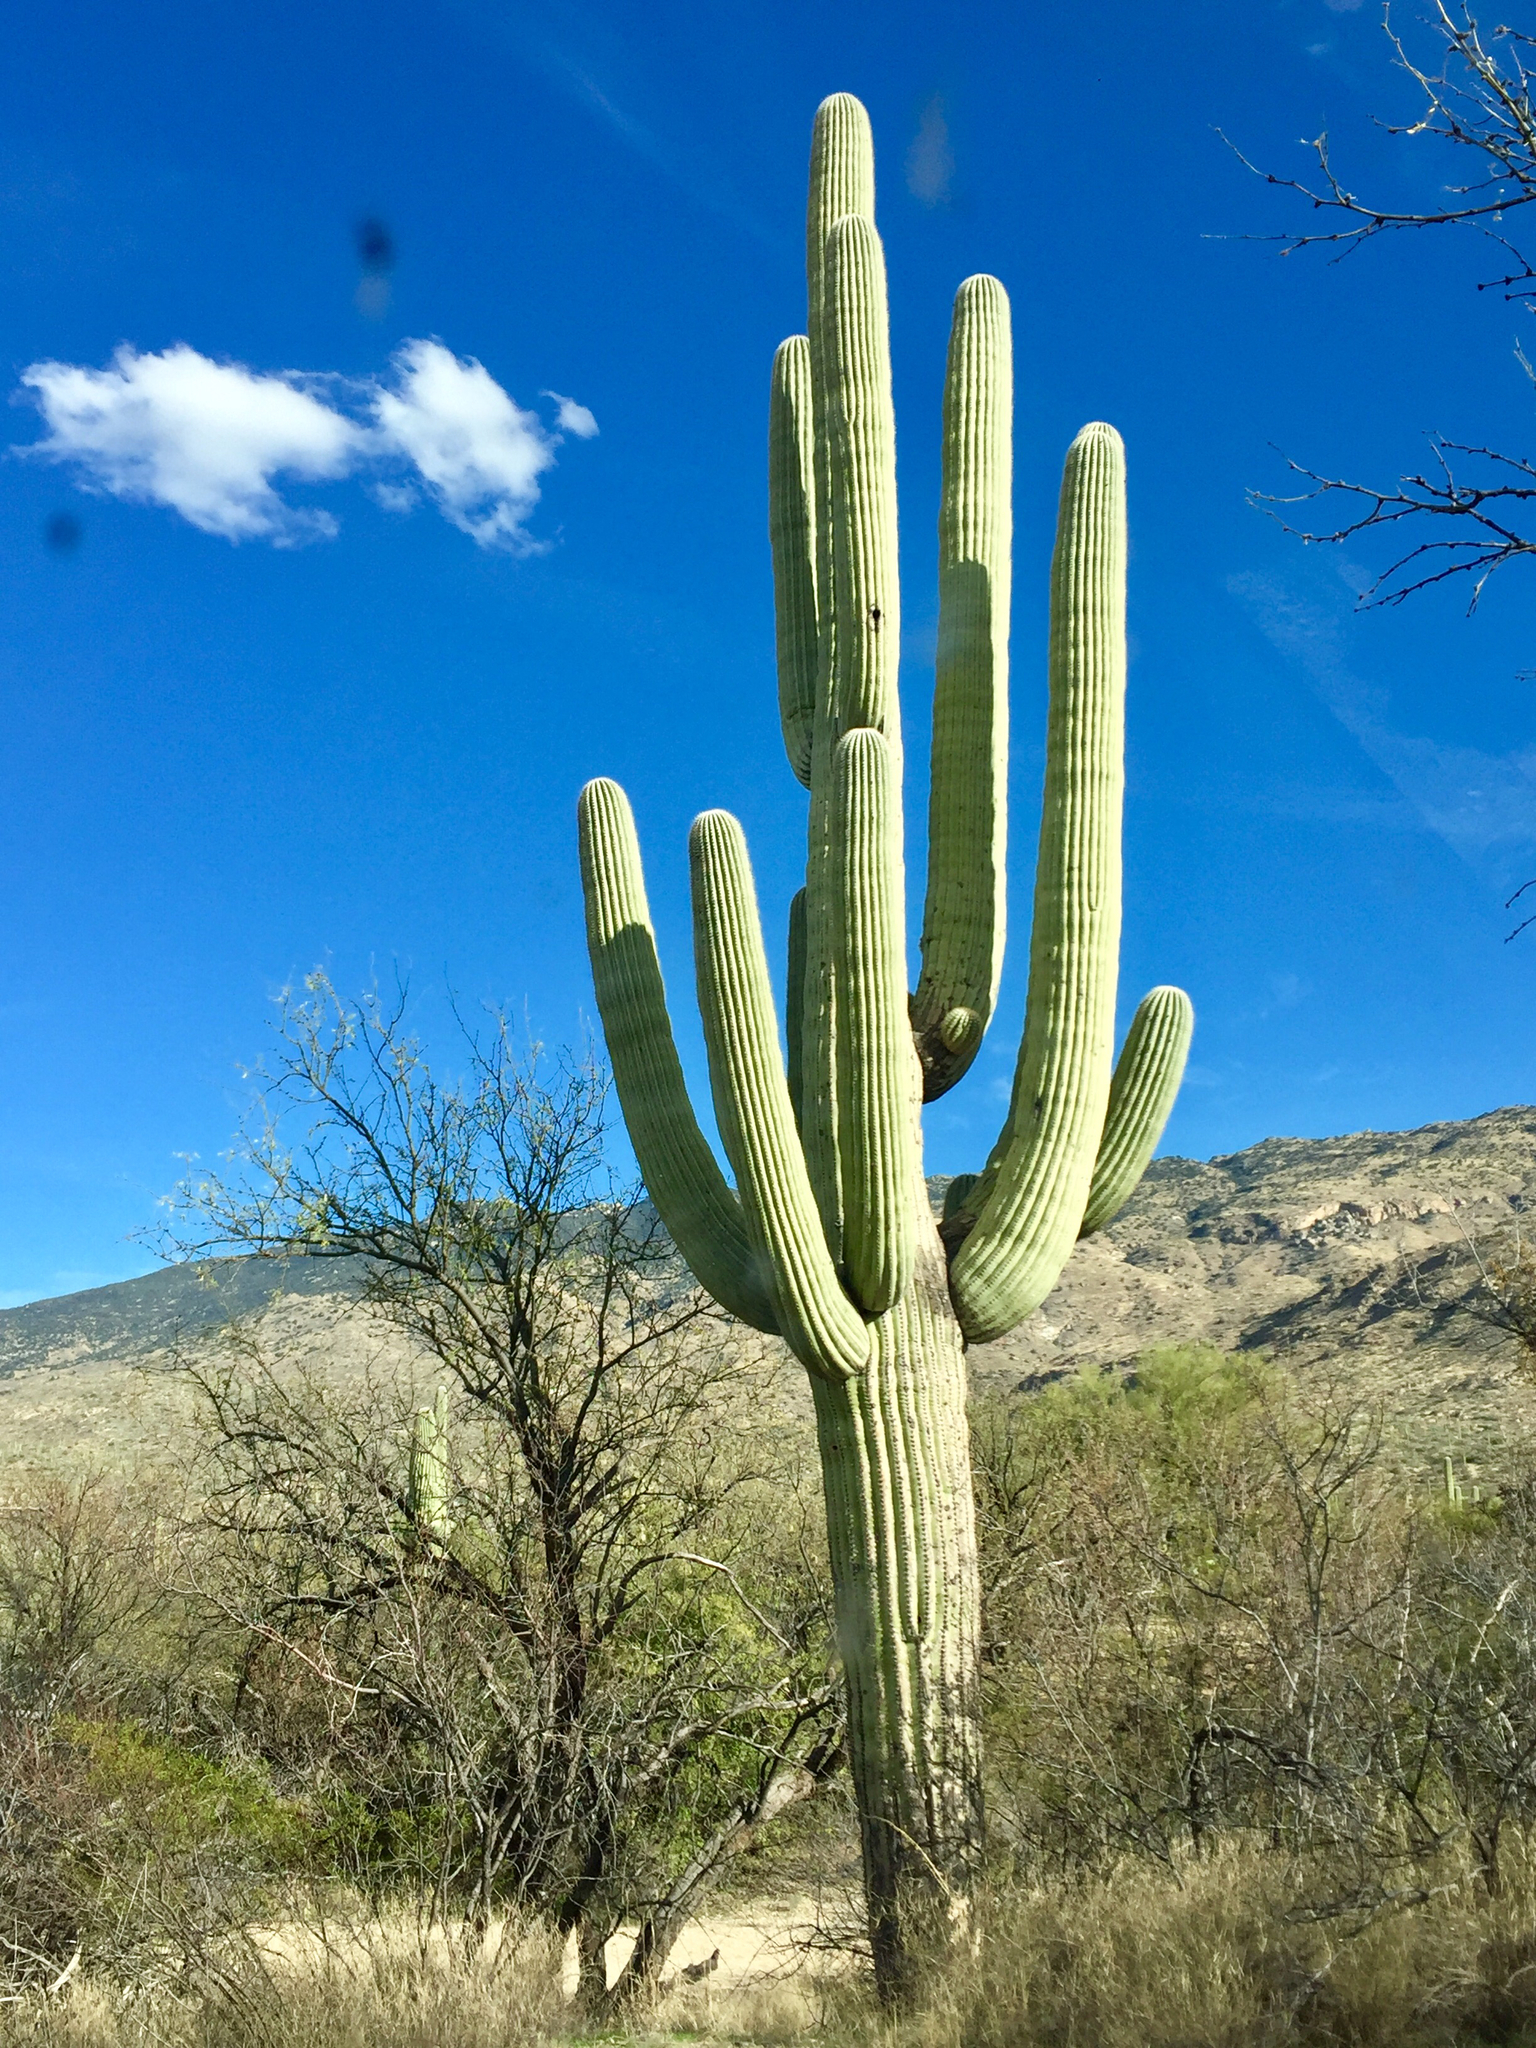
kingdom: Plantae
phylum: Tracheophyta
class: Magnoliopsida
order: Caryophyllales
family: Cactaceae
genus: Carnegiea
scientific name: Carnegiea gigantea
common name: Saguaro
